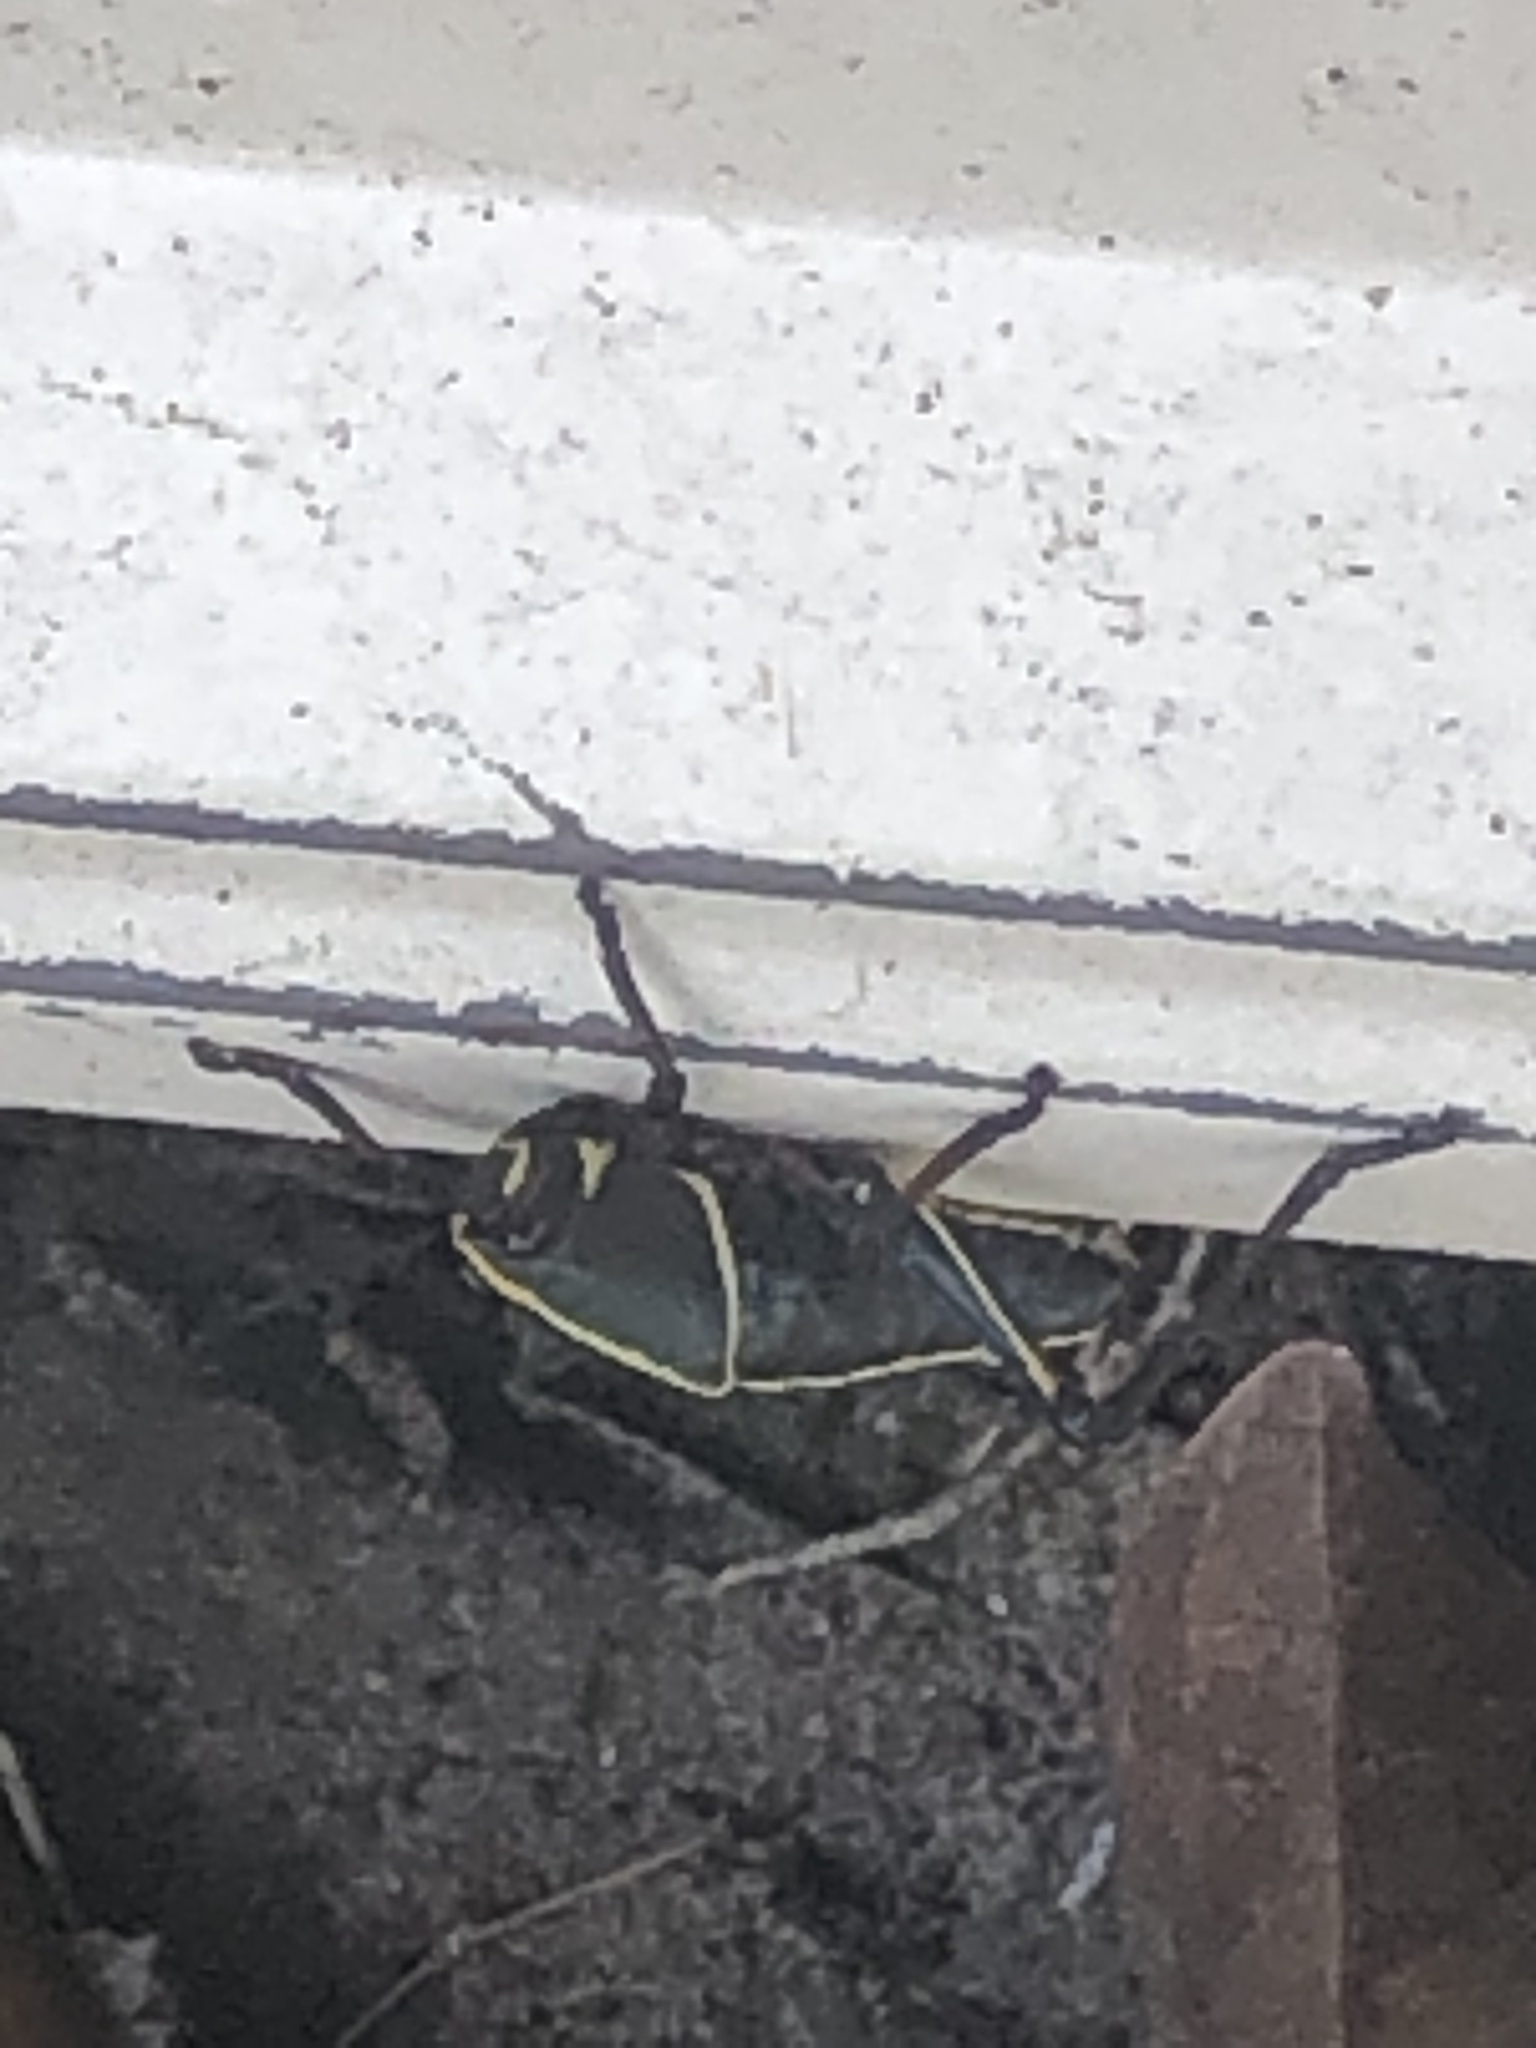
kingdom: Animalia
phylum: Arthropoda
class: Insecta
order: Orthoptera
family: Romaleidae
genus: Romalea
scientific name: Romalea microptera
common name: Eastern lubber grasshopper
